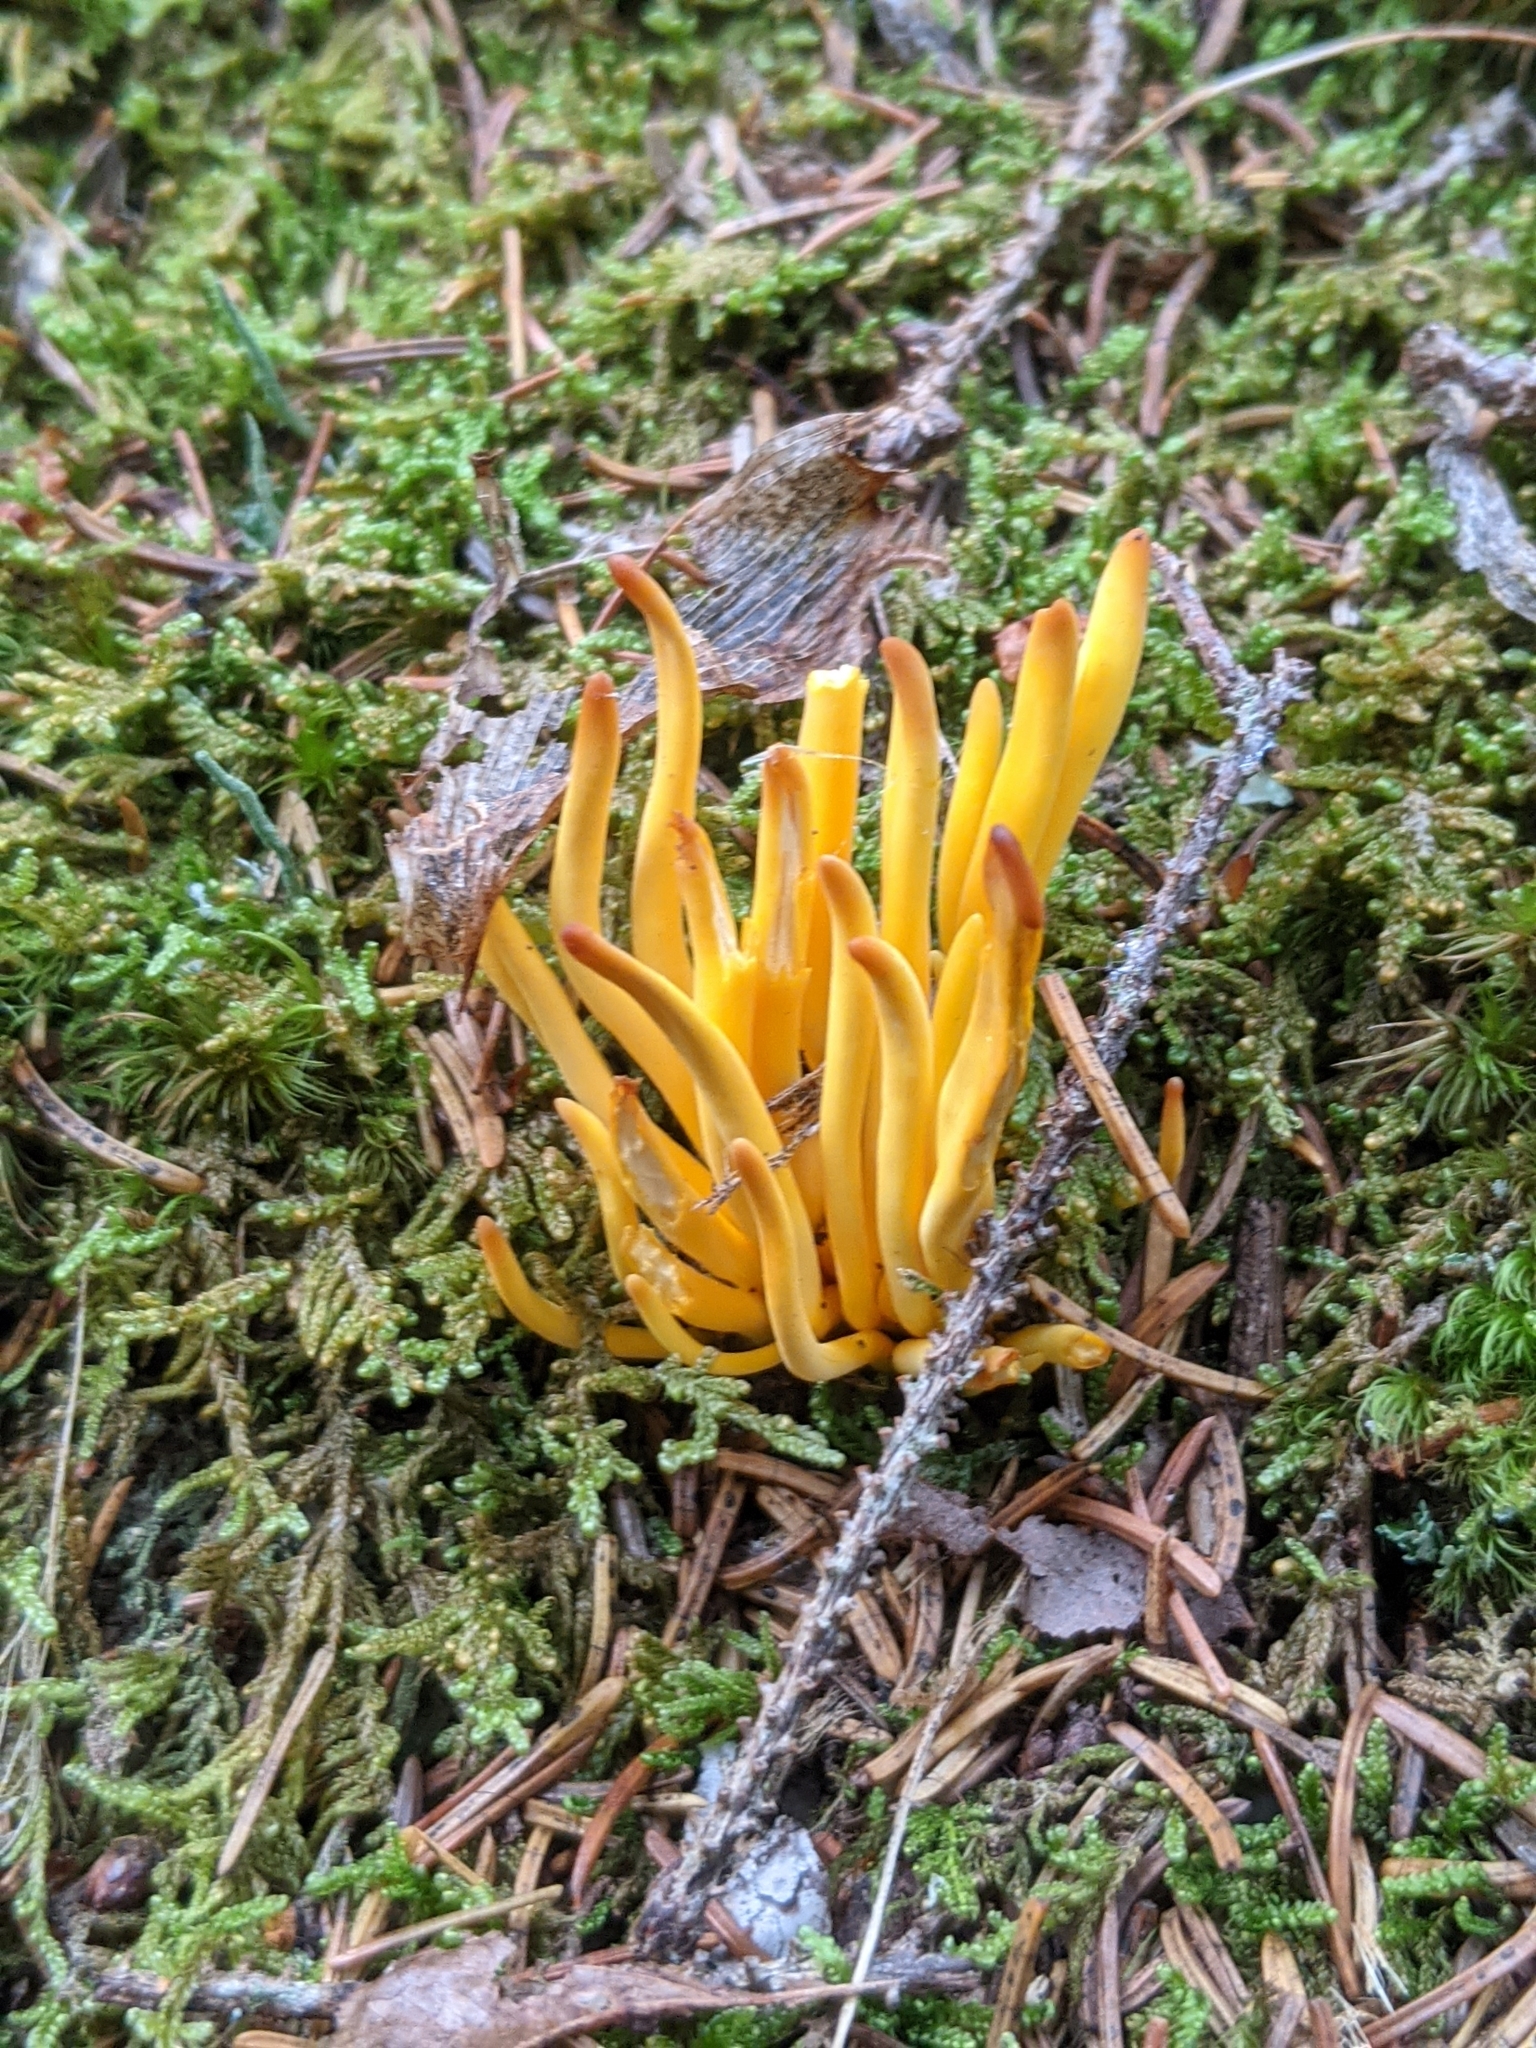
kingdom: Fungi
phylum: Basidiomycota
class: Agaricomycetes
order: Agaricales
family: Clavariaceae
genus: Clavulinopsis
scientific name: Clavulinopsis fusiformis
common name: Golden spindles
